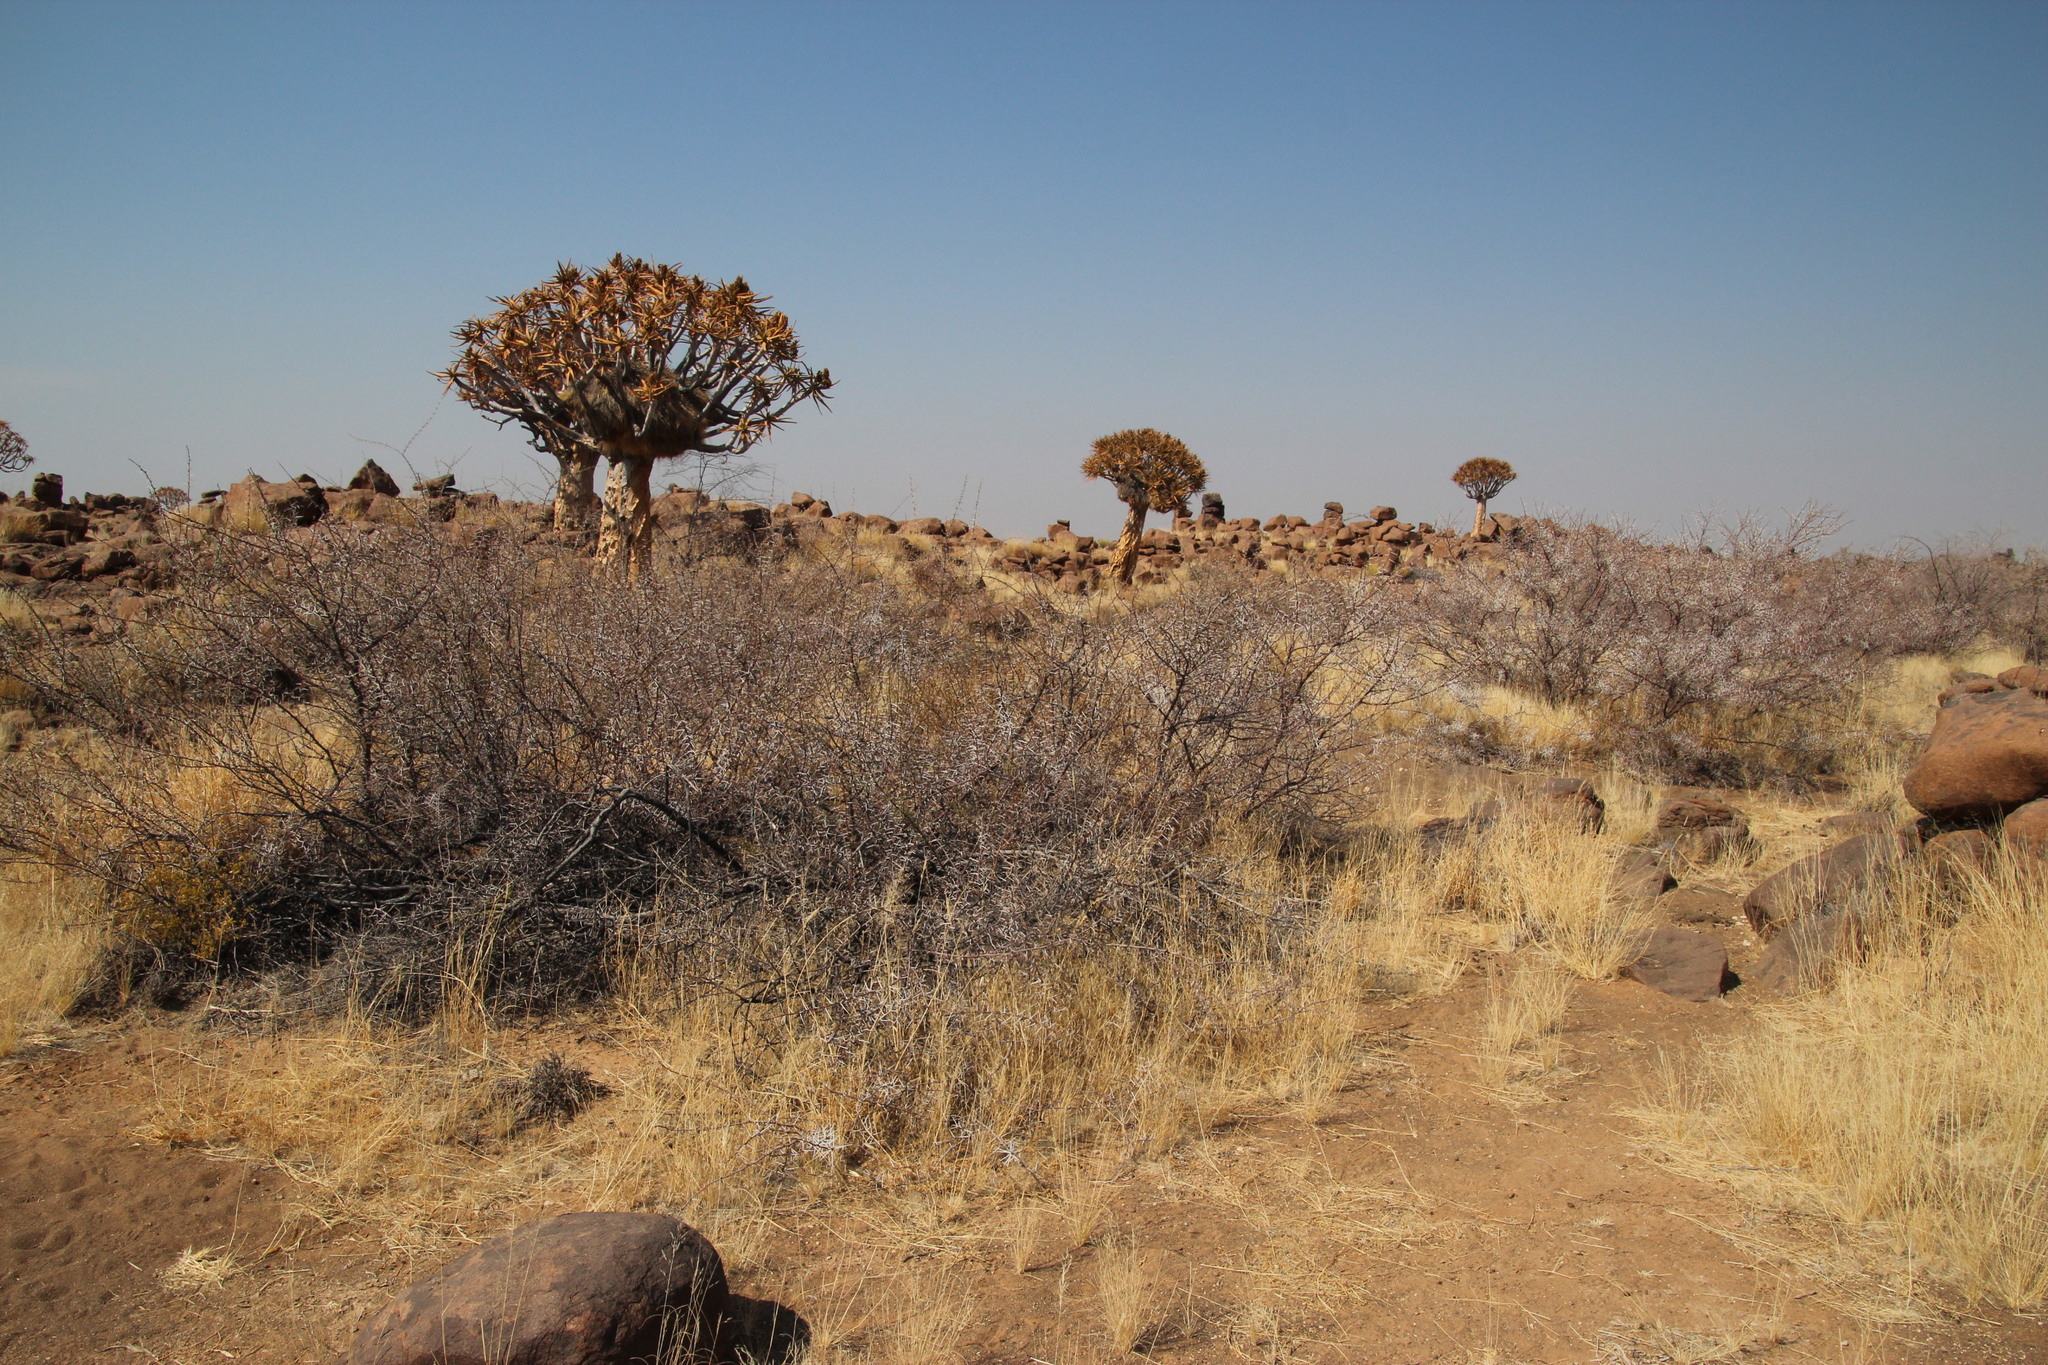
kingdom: Plantae
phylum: Tracheophyta
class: Magnoliopsida
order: Fabales
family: Fabaceae
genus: Vachellia
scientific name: Vachellia nebrownii
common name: Water acacia
